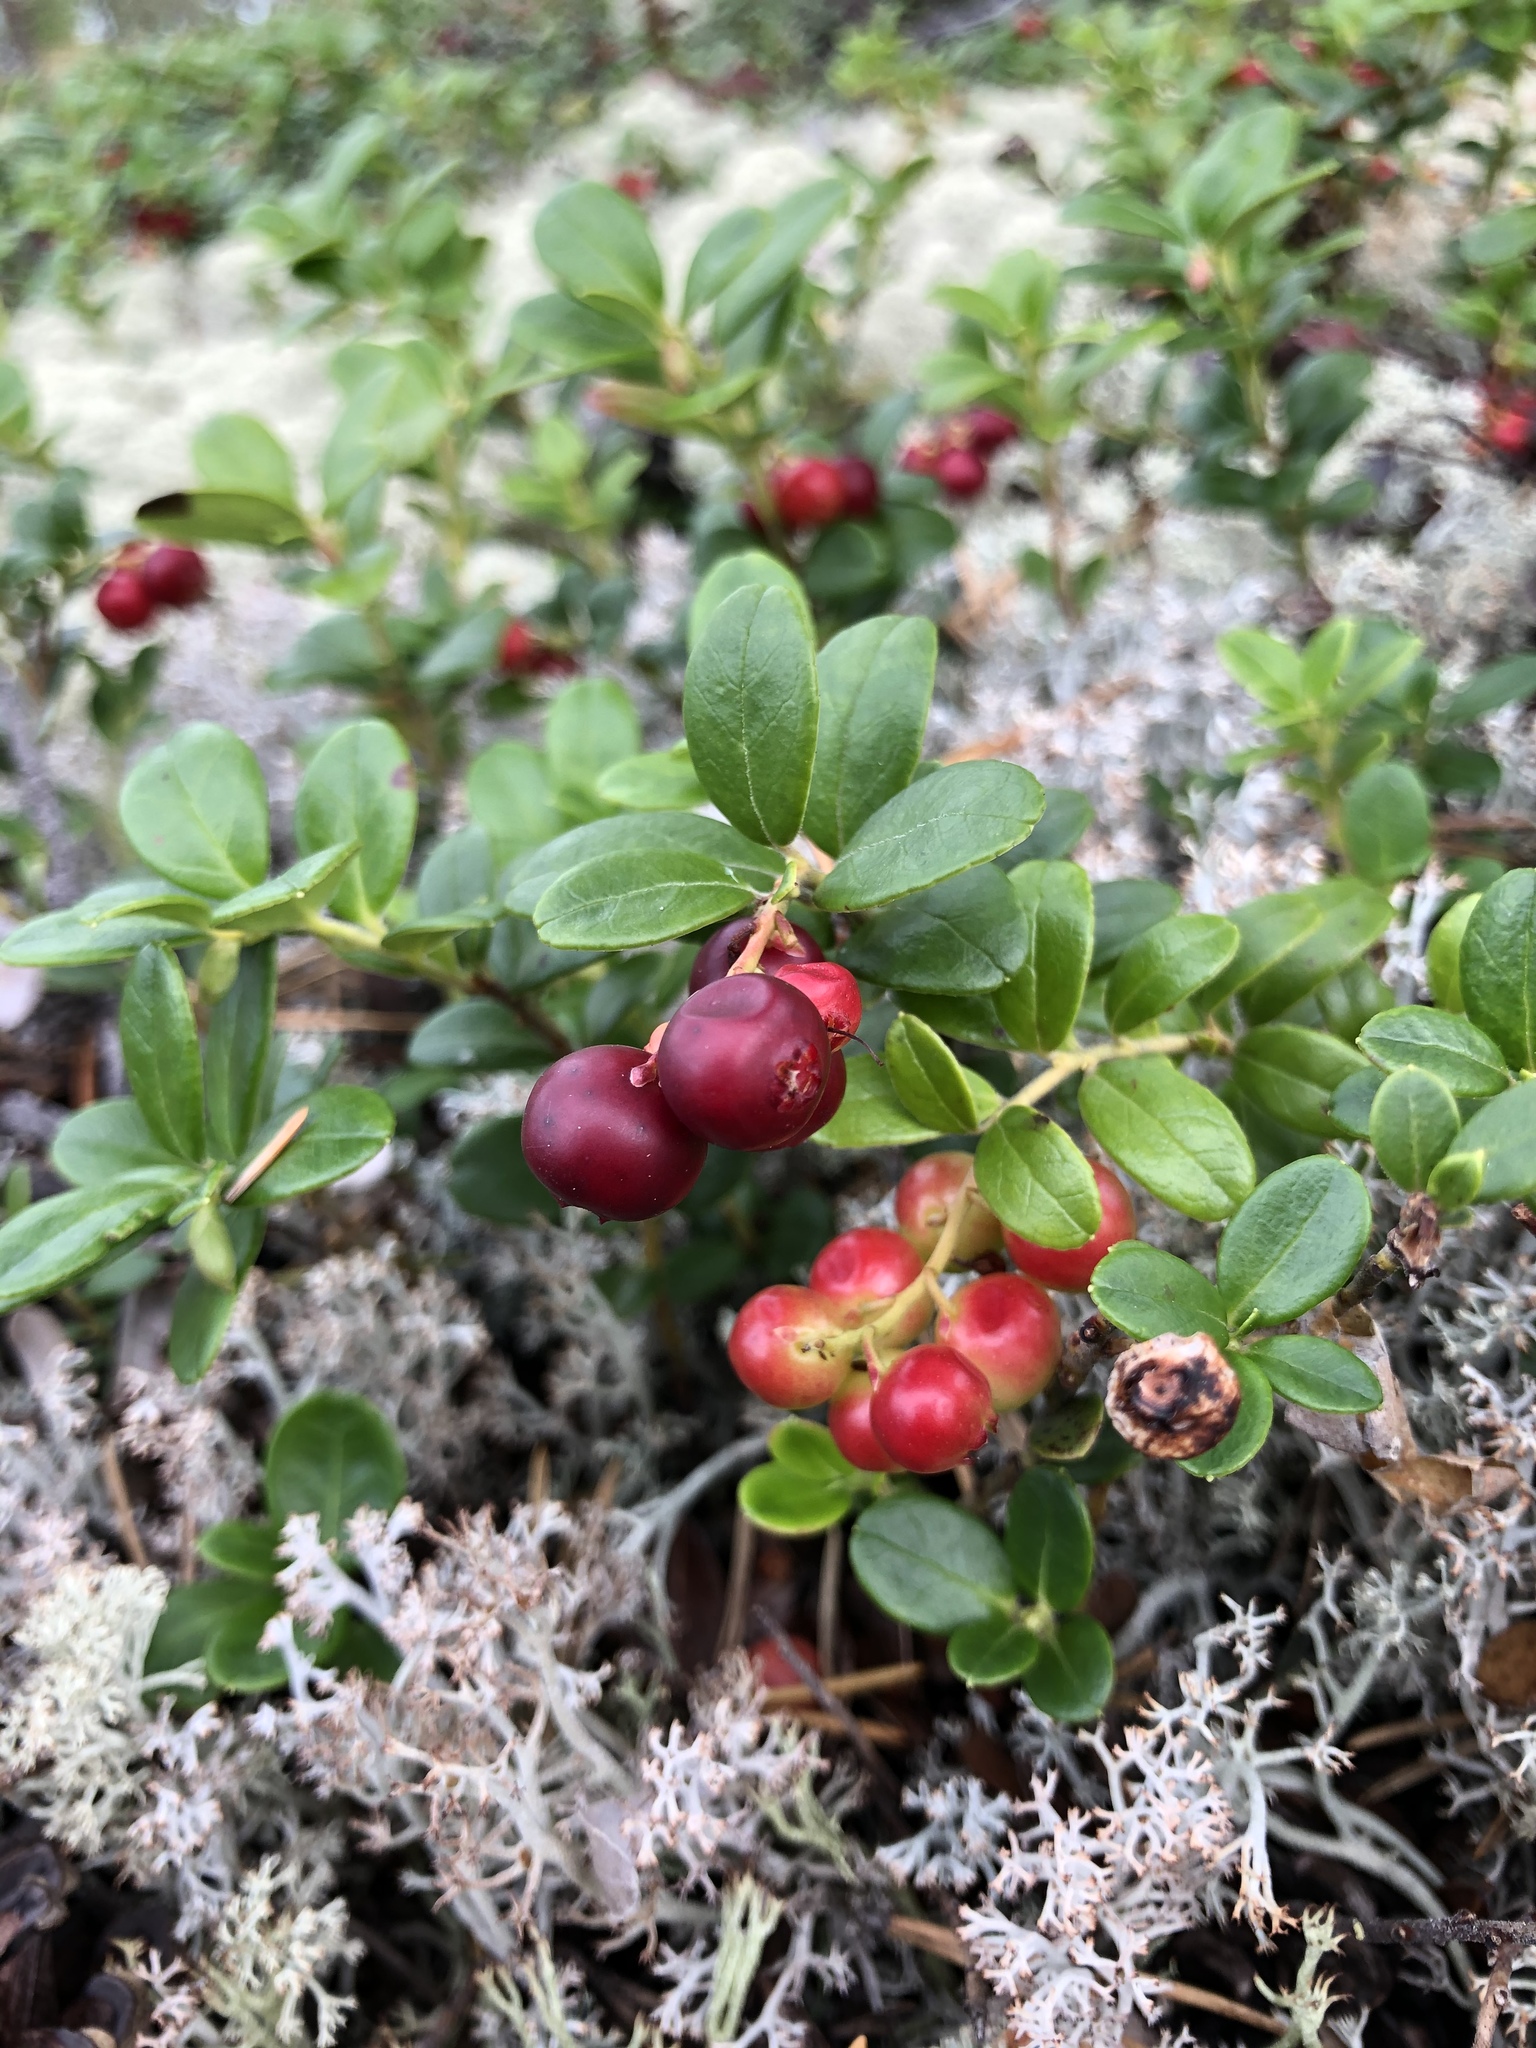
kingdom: Plantae
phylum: Tracheophyta
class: Magnoliopsida
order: Ericales
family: Ericaceae
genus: Vaccinium
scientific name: Vaccinium vitis-idaea
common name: Cowberry
